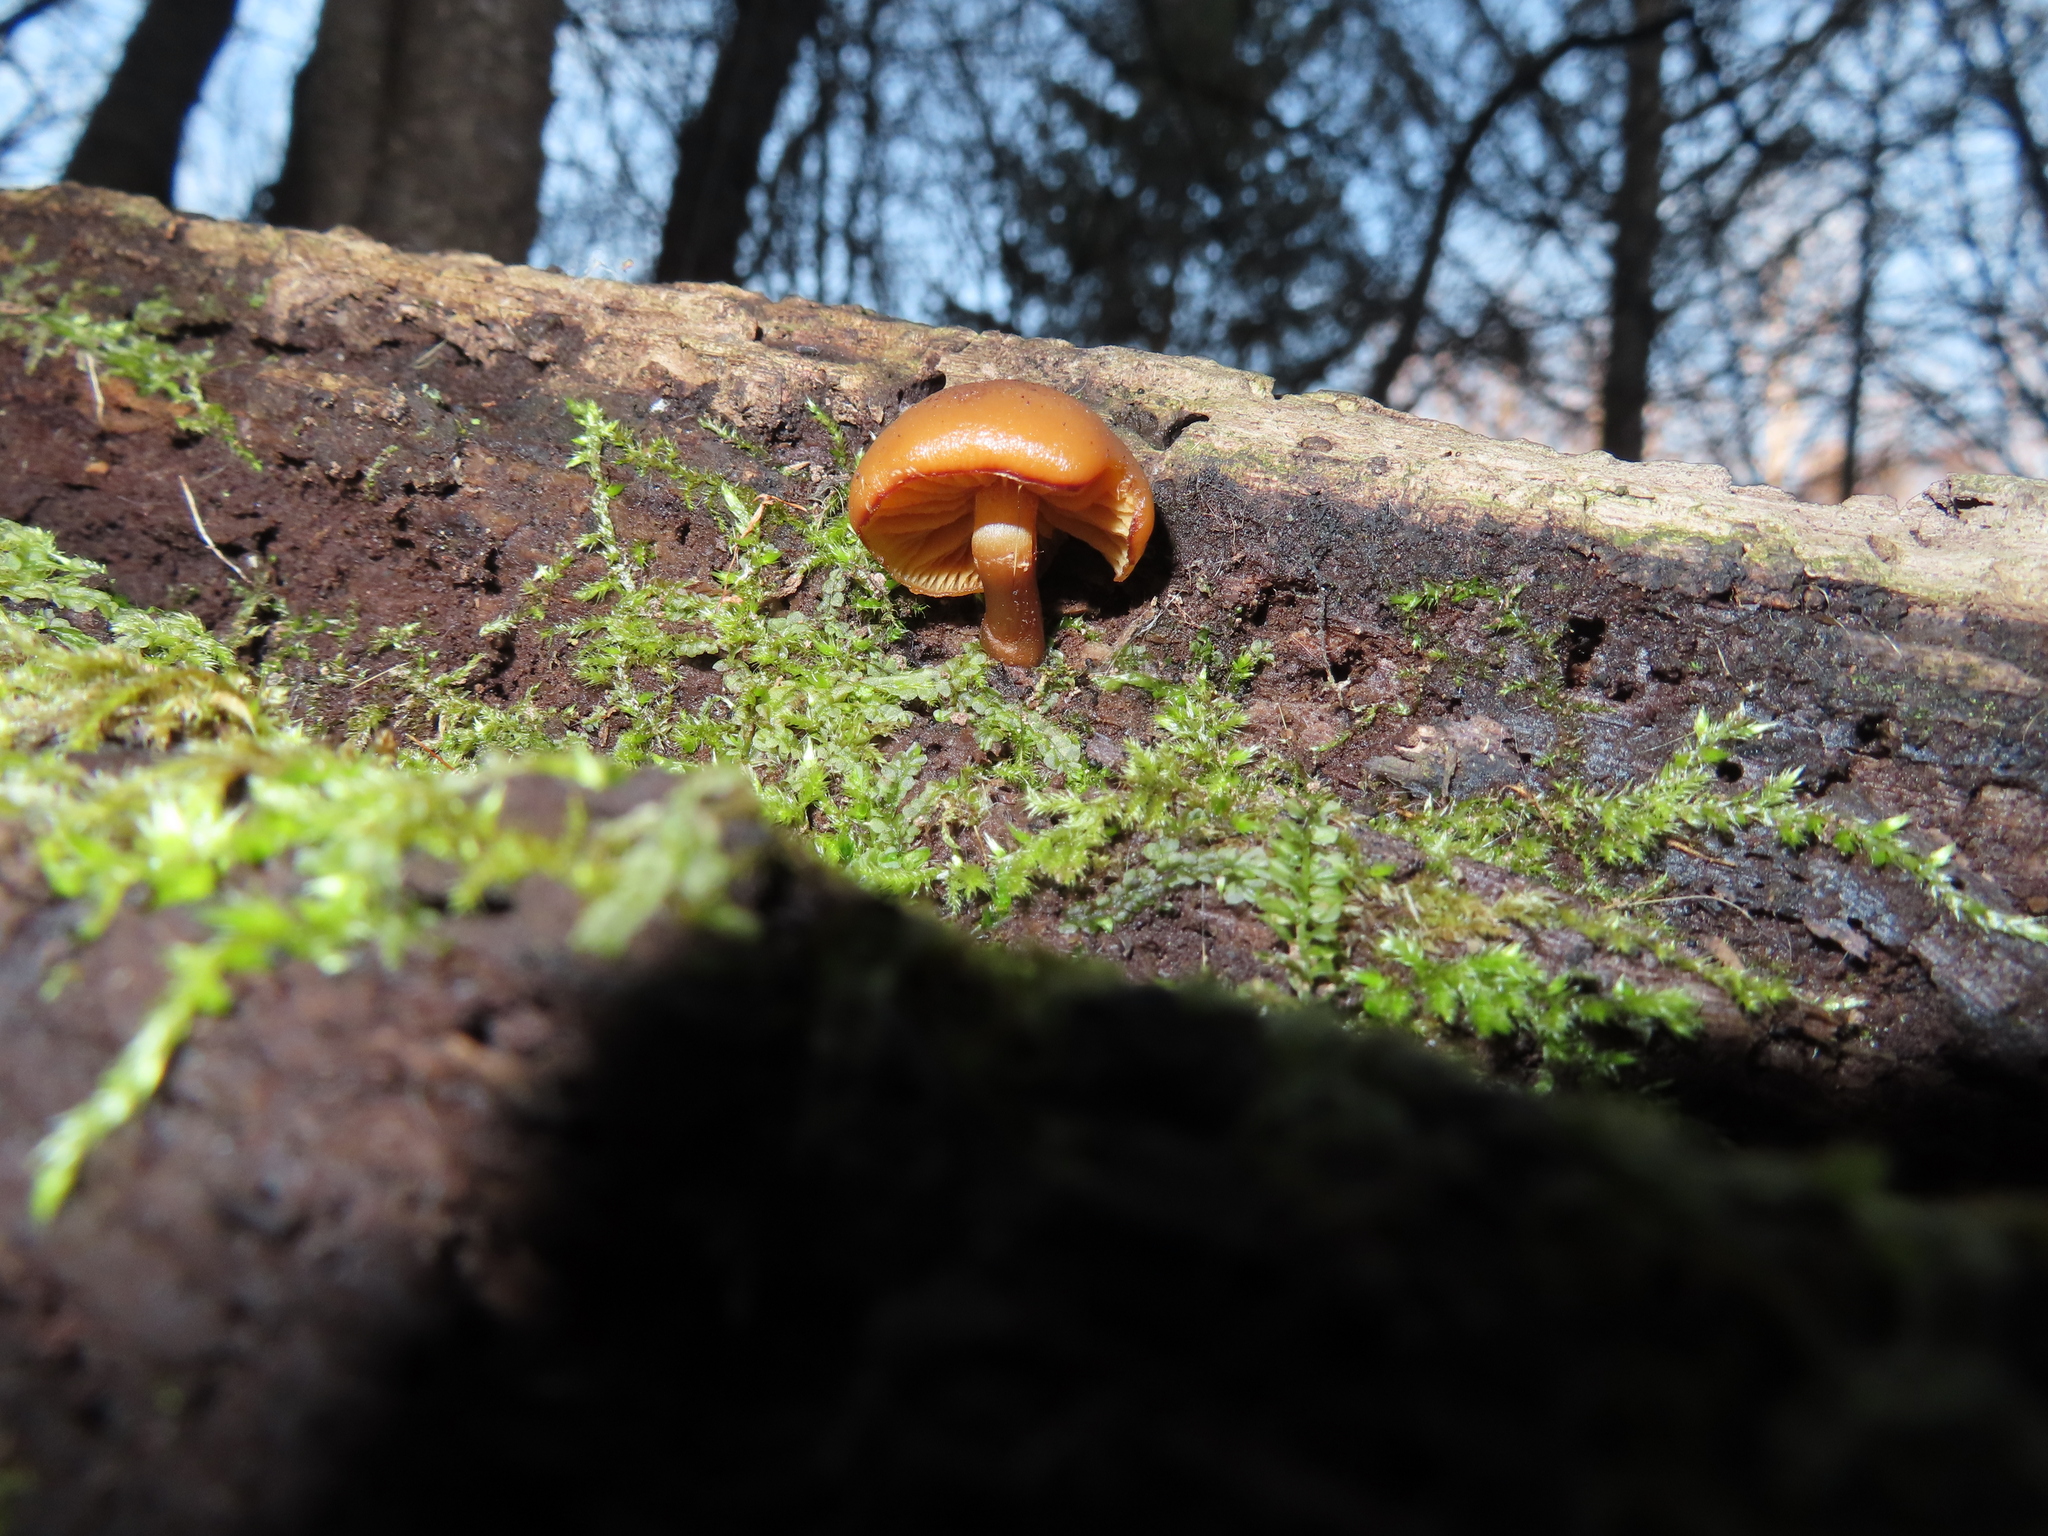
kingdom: Fungi
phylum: Basidiomycota
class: Agaricomycetes
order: Agaricales
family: Hymenogastraceae
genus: Galerina
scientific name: Galerina marginata
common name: Funeral bell
